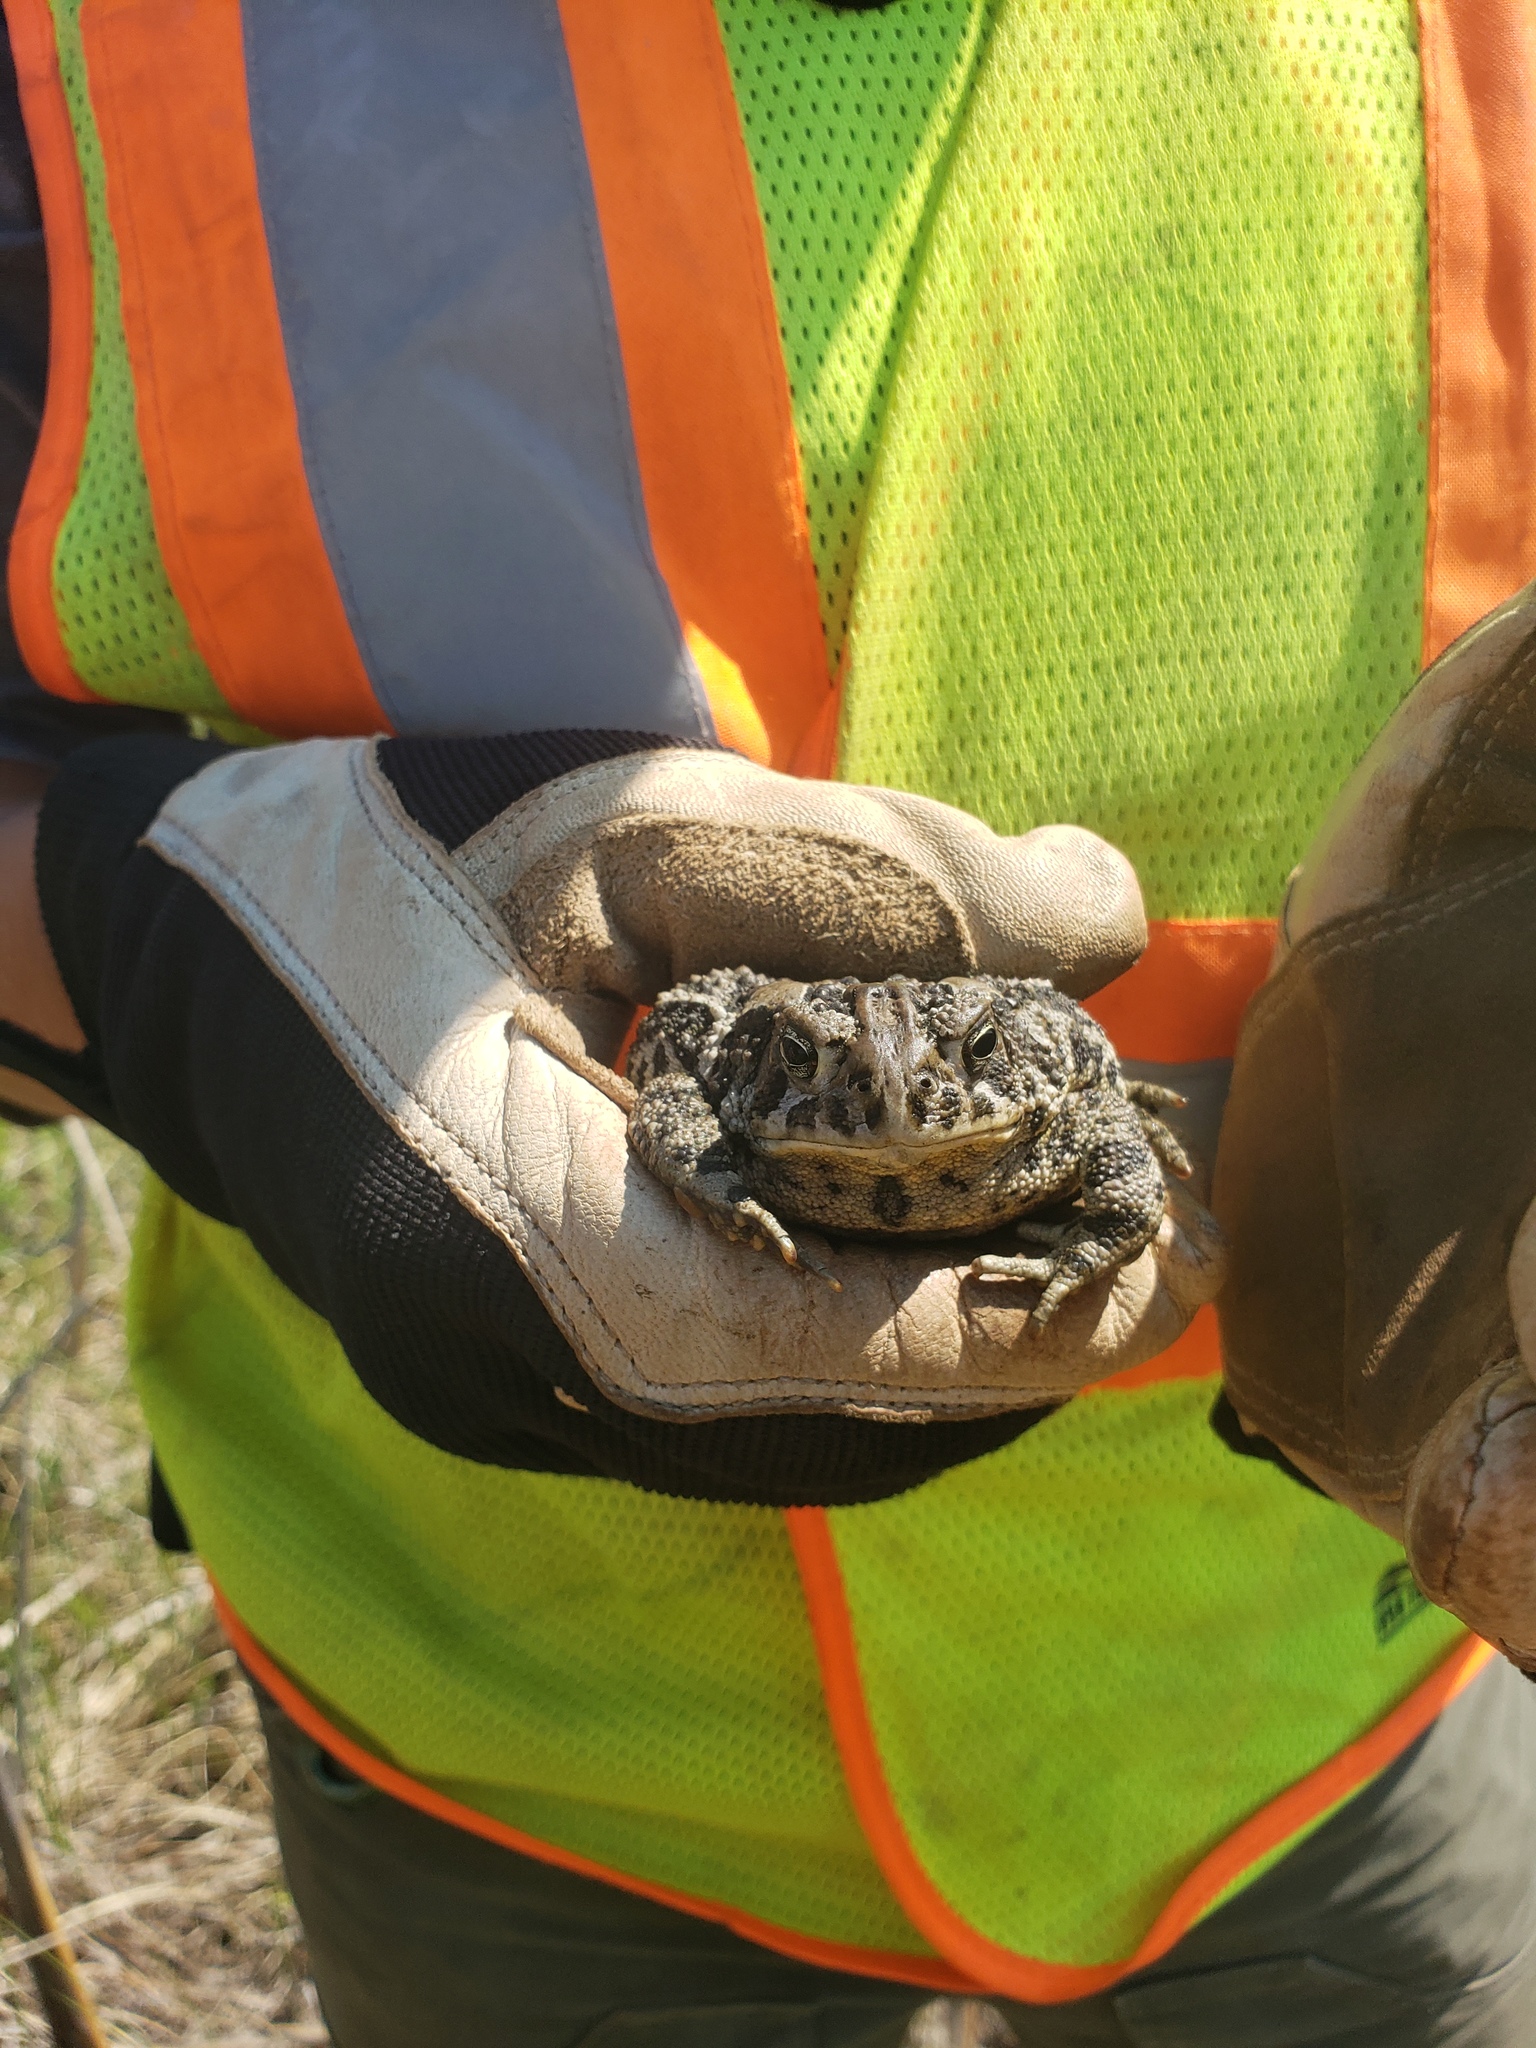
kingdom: Animalia
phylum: Chordata
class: Amphibia
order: Anura
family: Bufonidae
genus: Anaxyrus
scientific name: Anaxyrus hemiophrys
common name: Canadian toad
